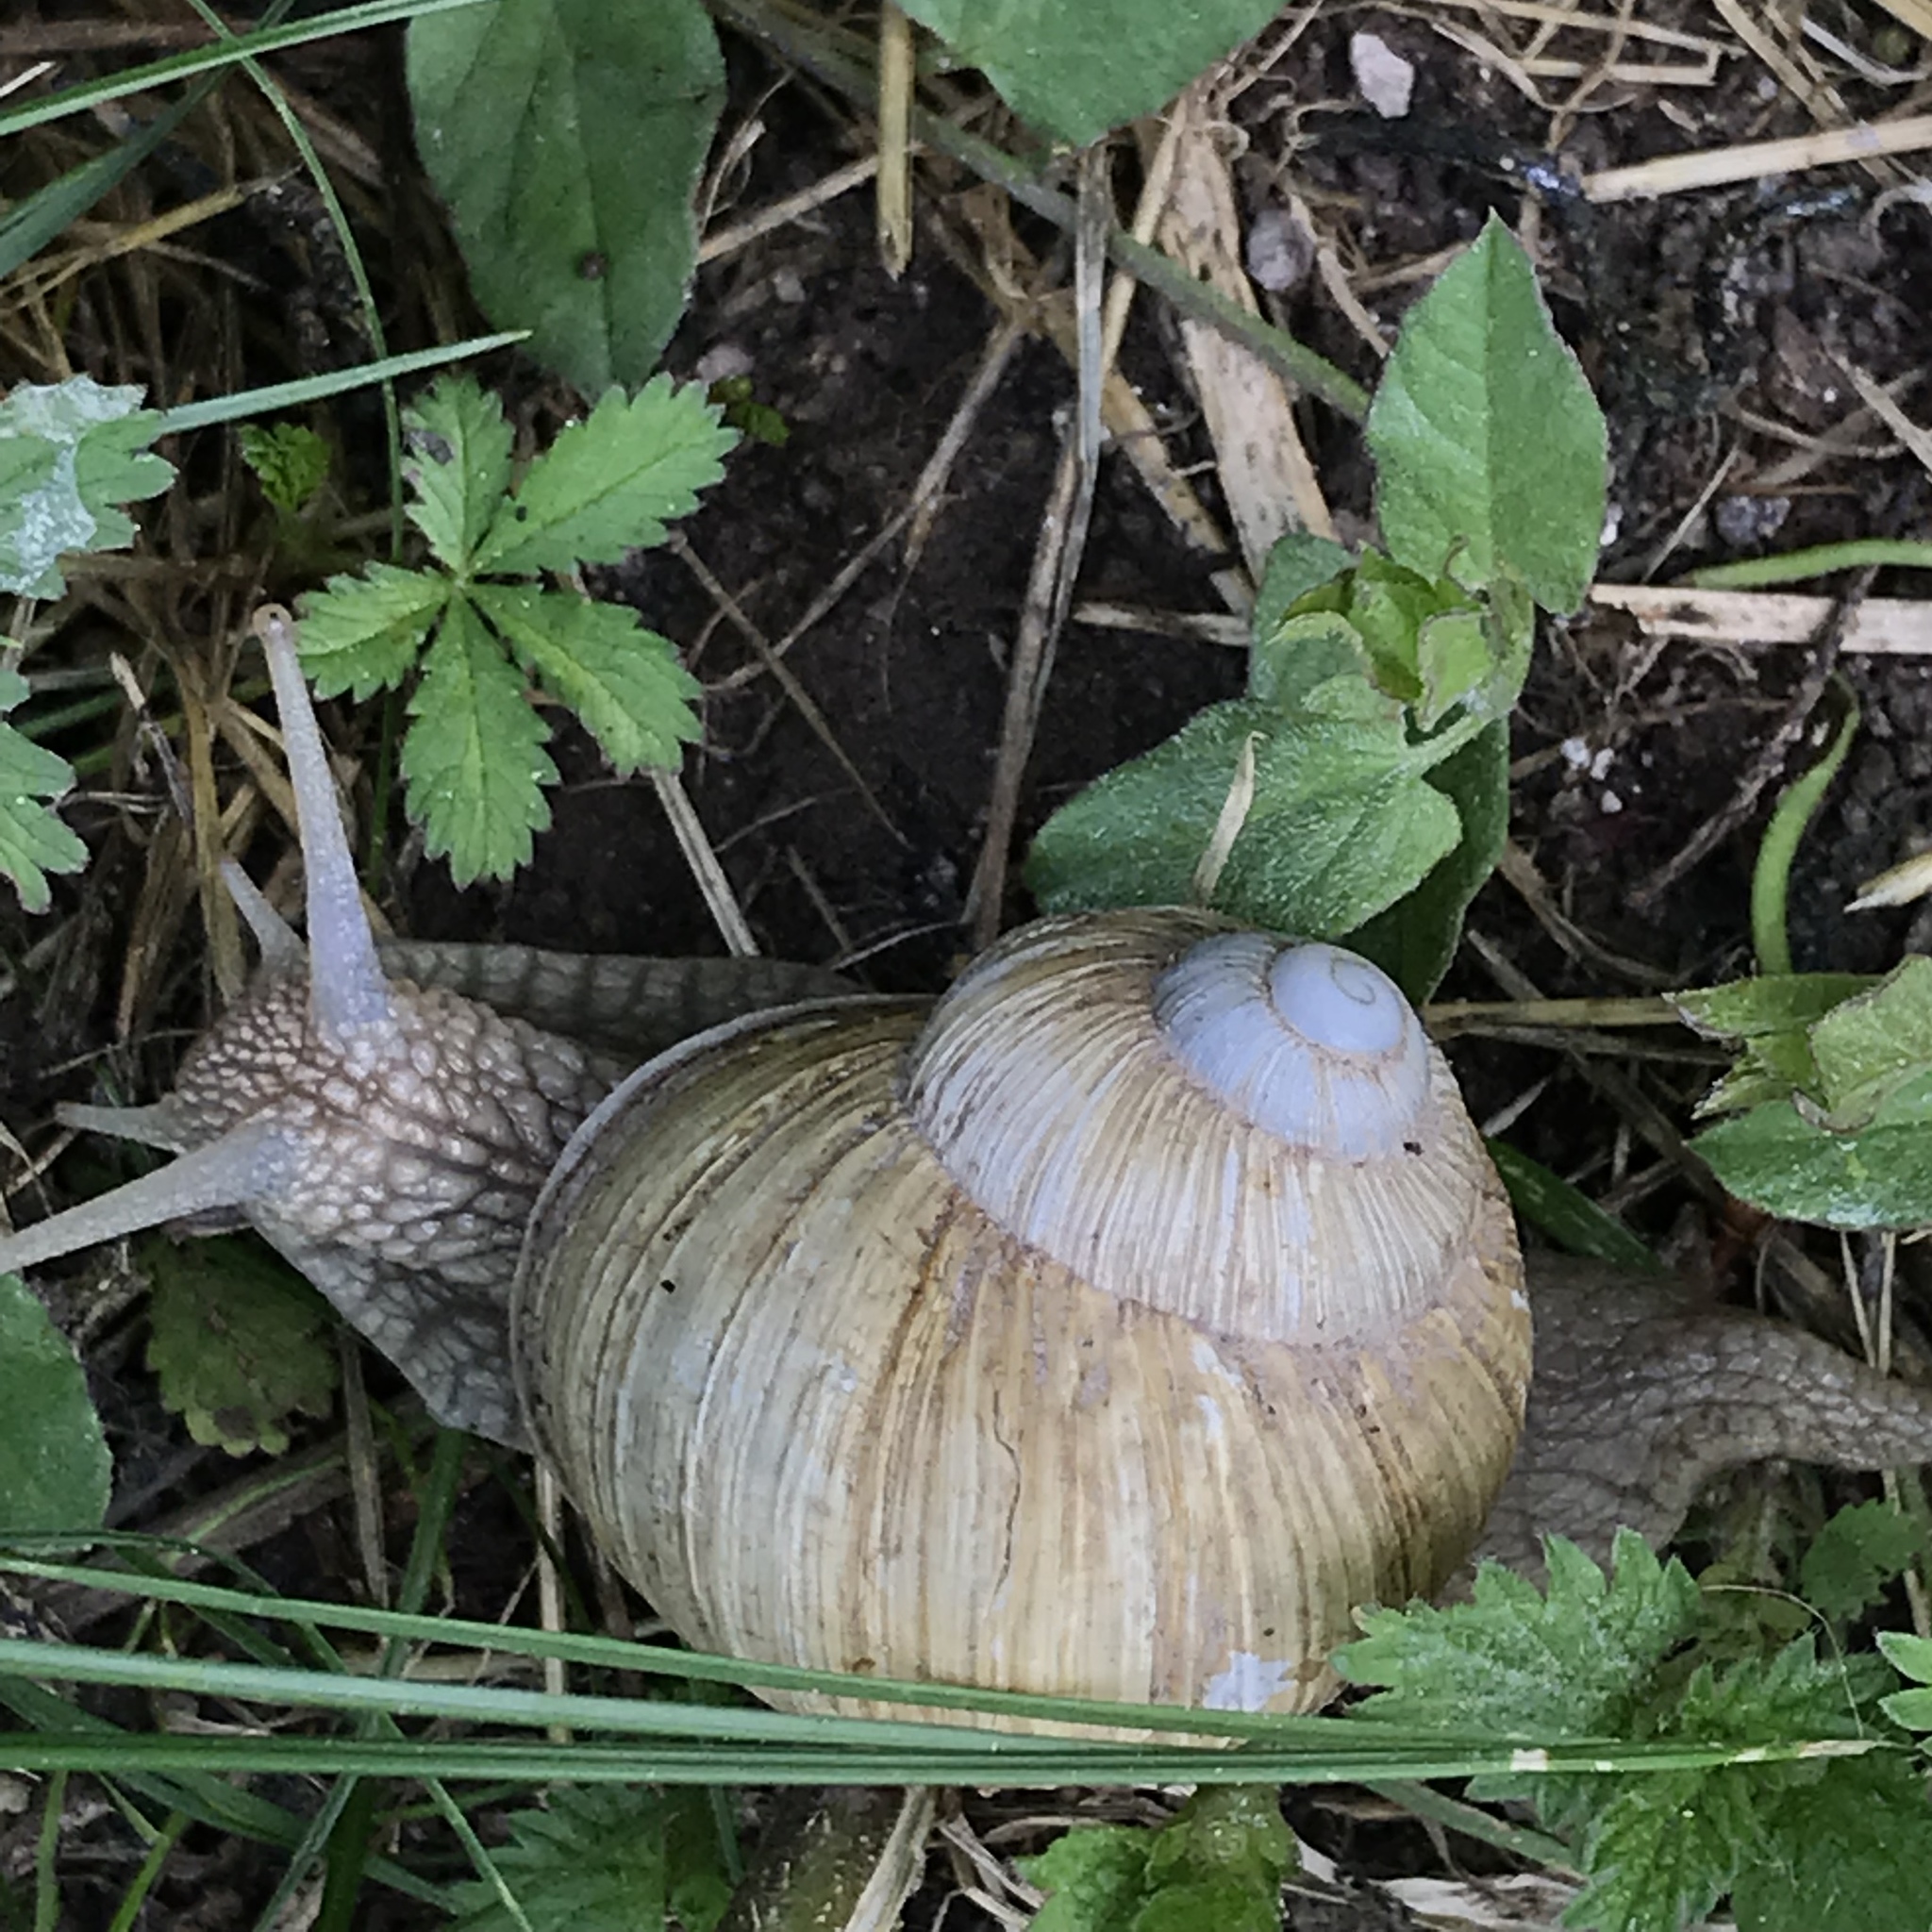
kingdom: Animalia
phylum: Mollusca
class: Gastropoda
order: Stylommatophora
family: Helicidae
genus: Helix
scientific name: Helix pomatia
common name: Roman snail
